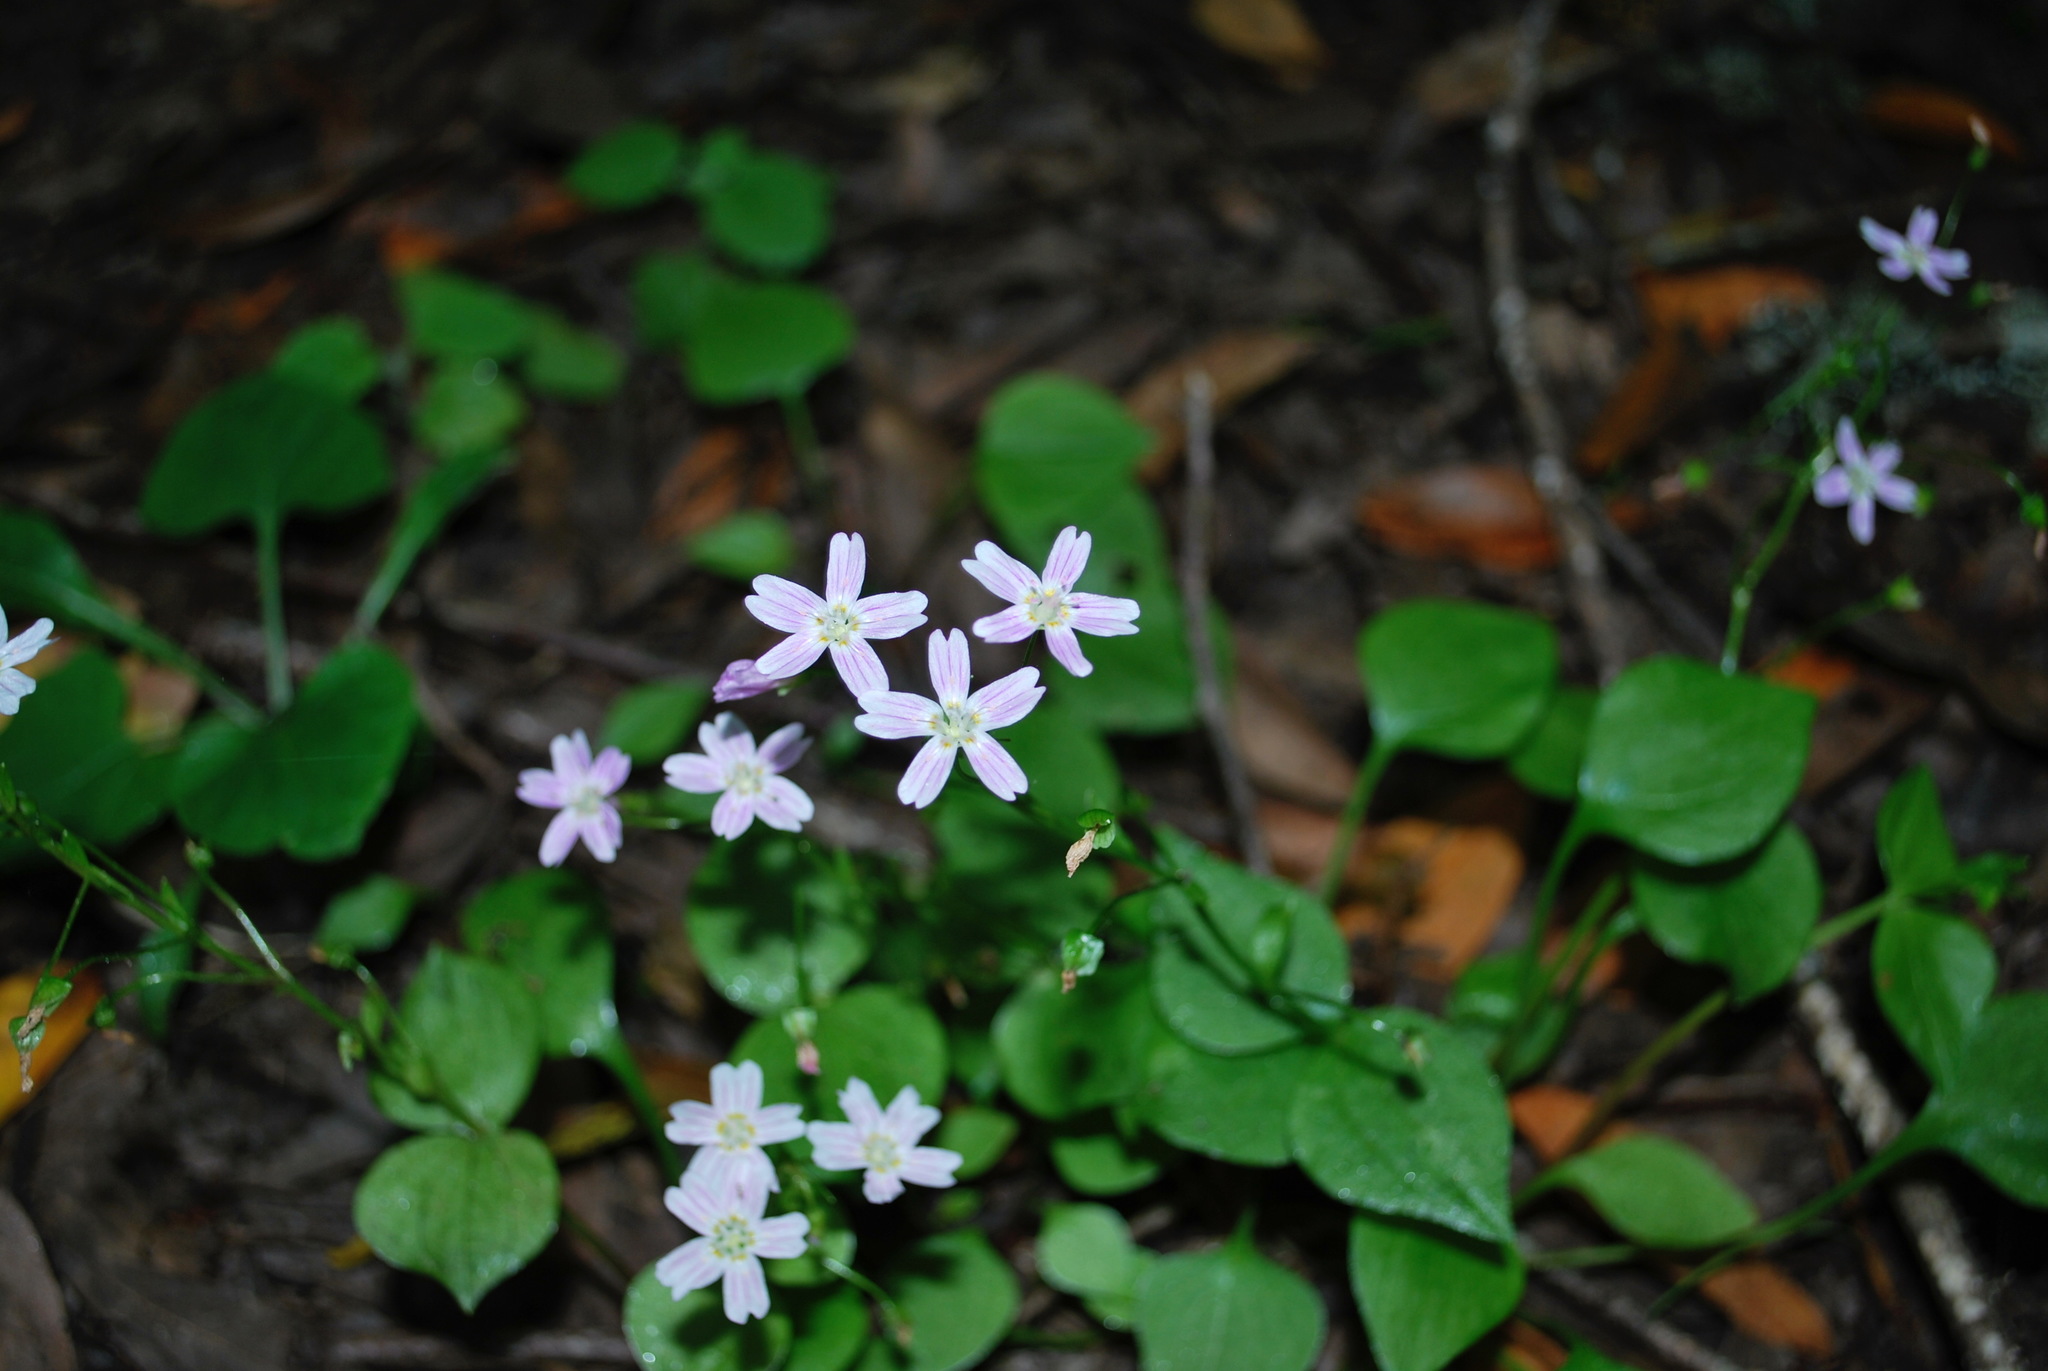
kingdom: Plantae
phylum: Tracheophyta
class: Magnoliopsida
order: Caryophyllales
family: Montiaceae
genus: Claytonia
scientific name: Claytonia sibirica
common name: Pink purslane
